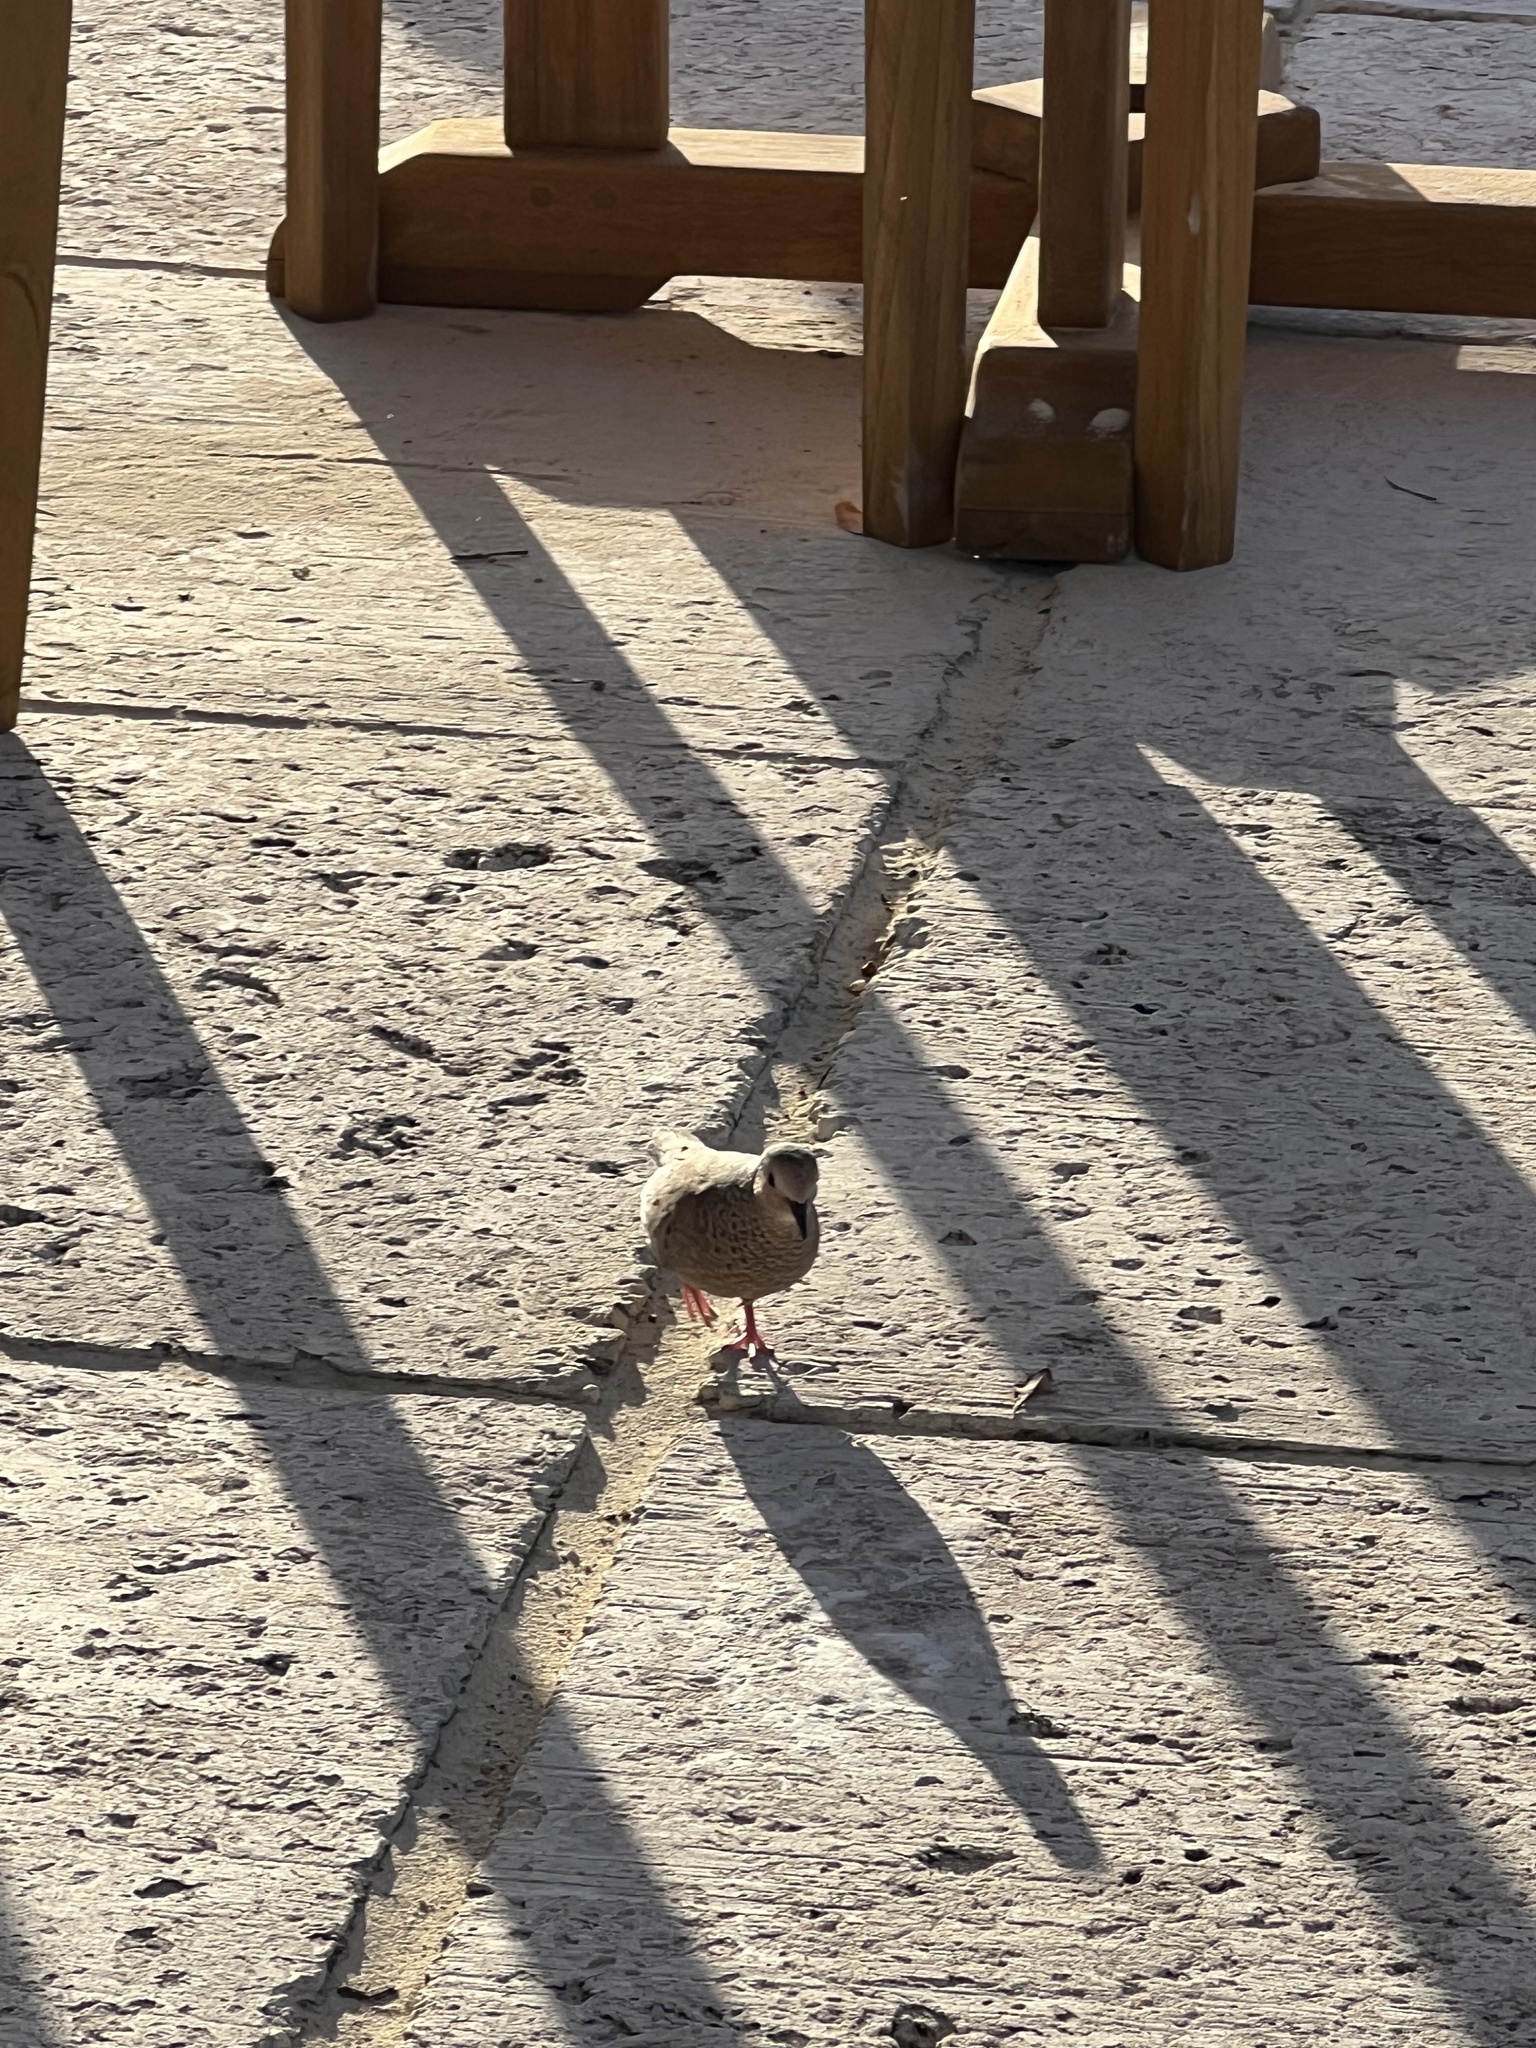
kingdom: Animalia
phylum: Chordata
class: Aves
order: Columbiformes
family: Columbidae
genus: Columbina
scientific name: Columbina passerina
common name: Common ground-dove
